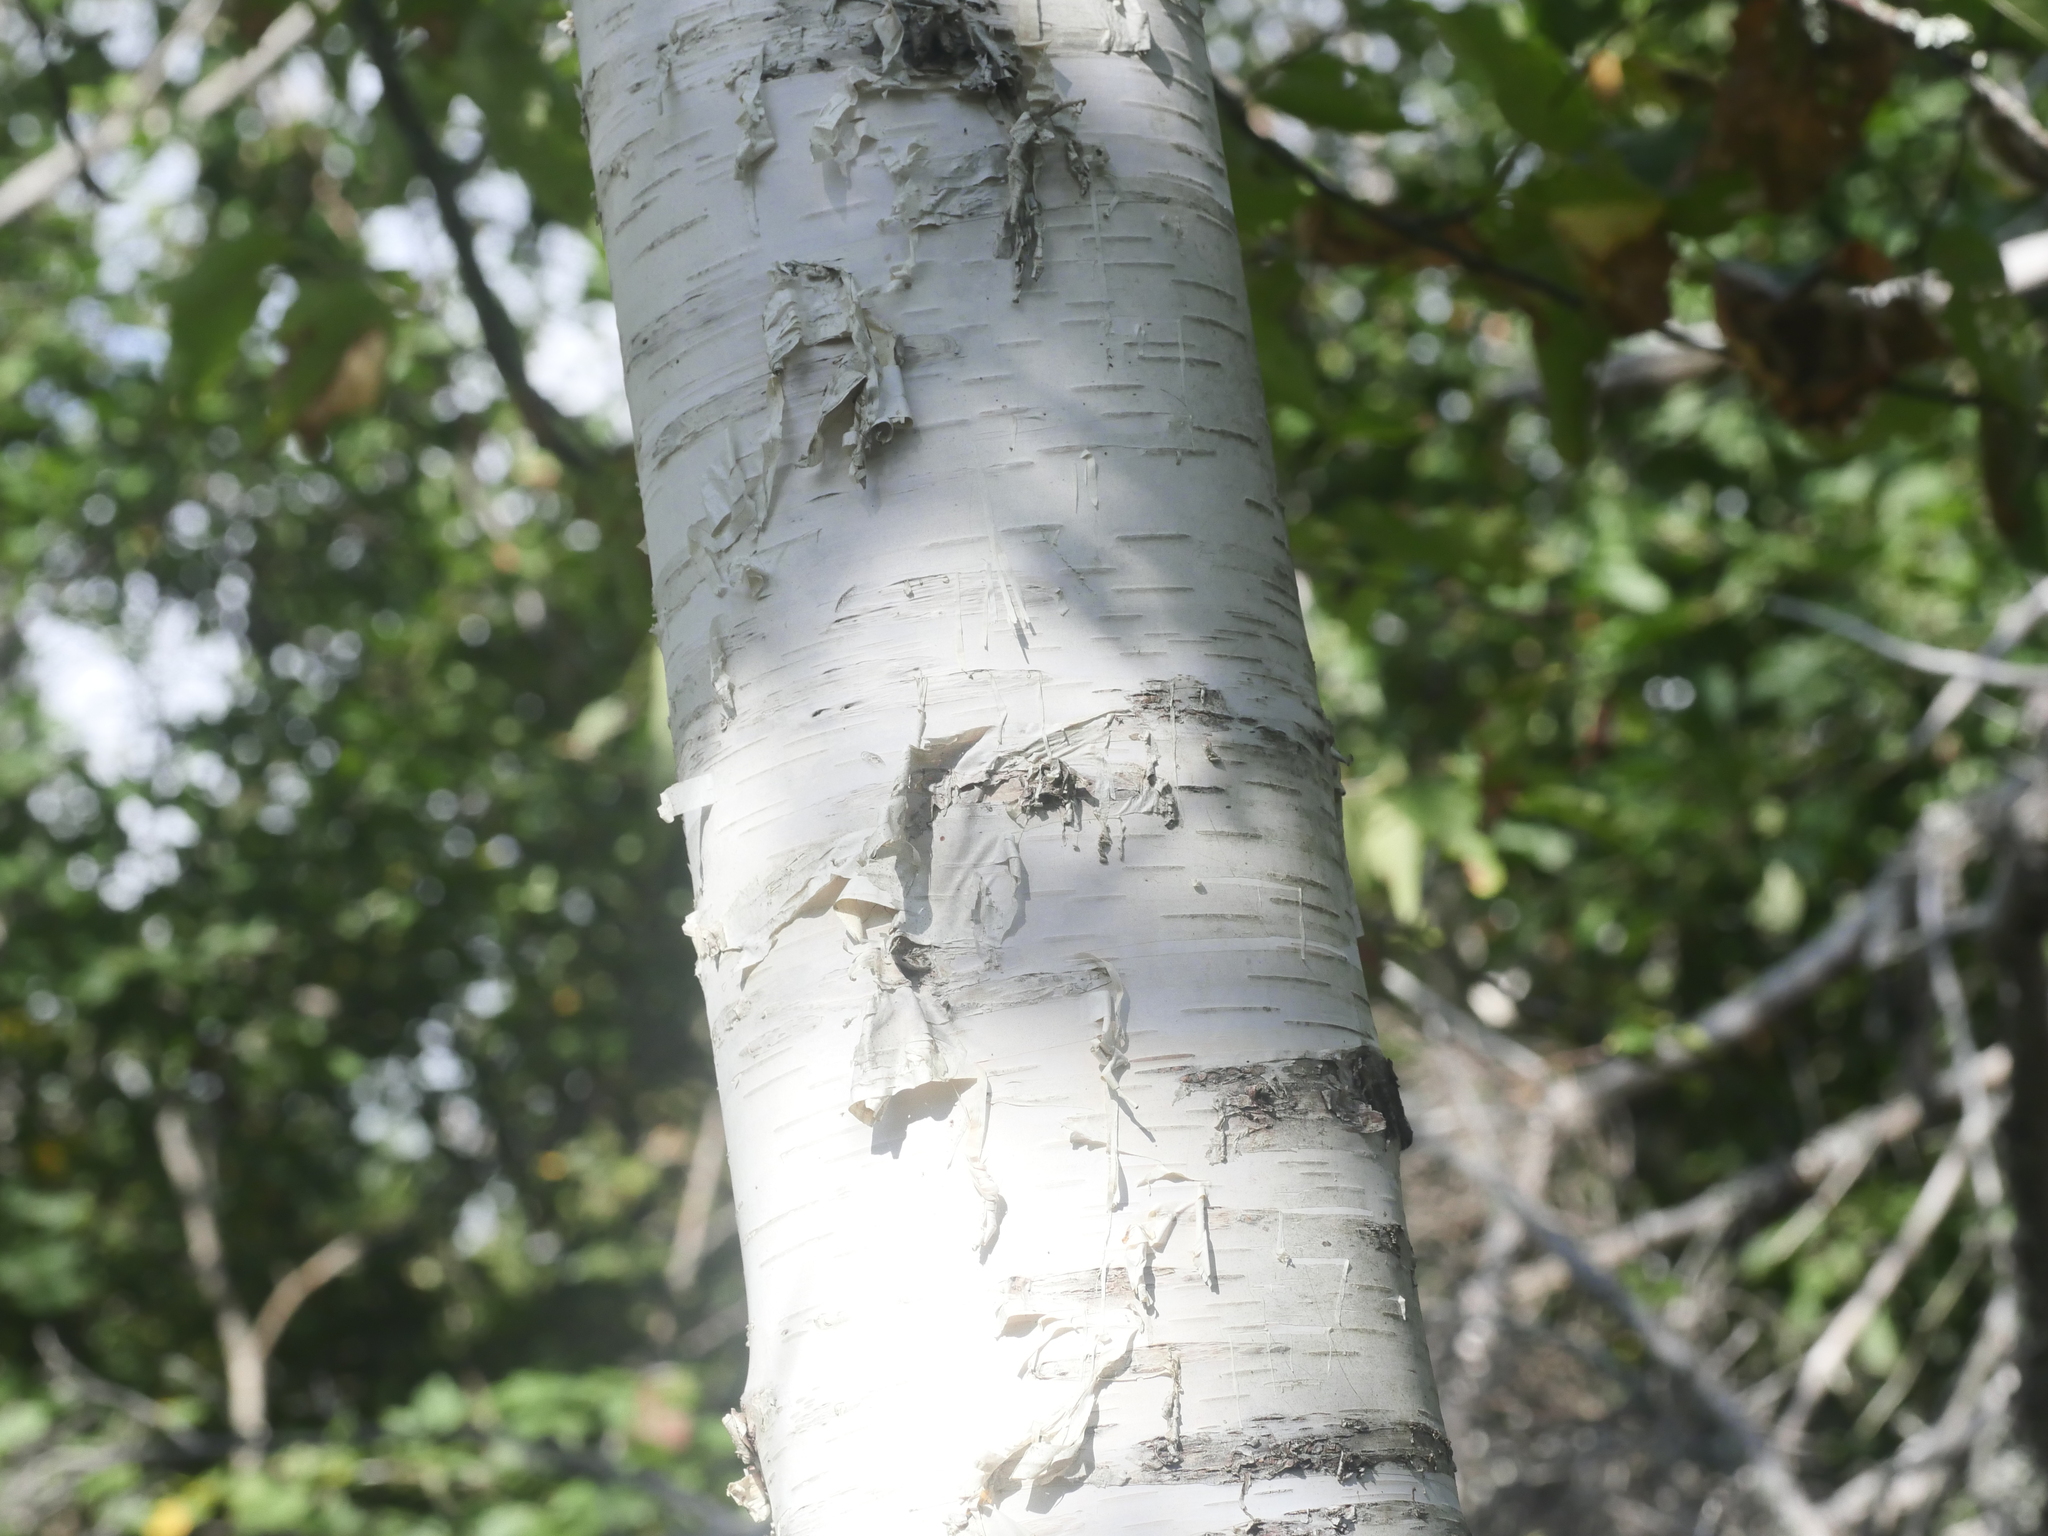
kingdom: Plantae
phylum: Tracheophyta
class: Magnoliopsida
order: Fagales
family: Betulaceae
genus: Betula
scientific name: Betula papyrifera
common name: Paper birch
